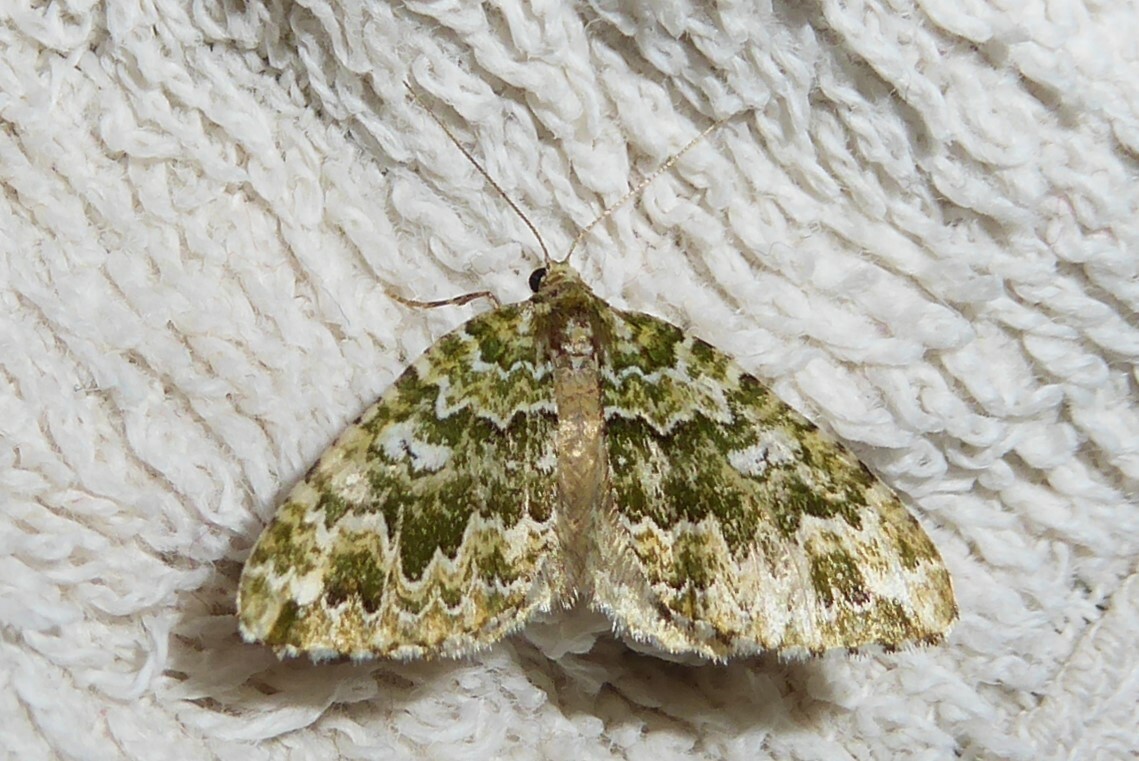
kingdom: Animalia
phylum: Arthropoda
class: Insecta
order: Lepidoptera
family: Geometridae
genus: Asaphodes
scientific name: Asaphodes beata
